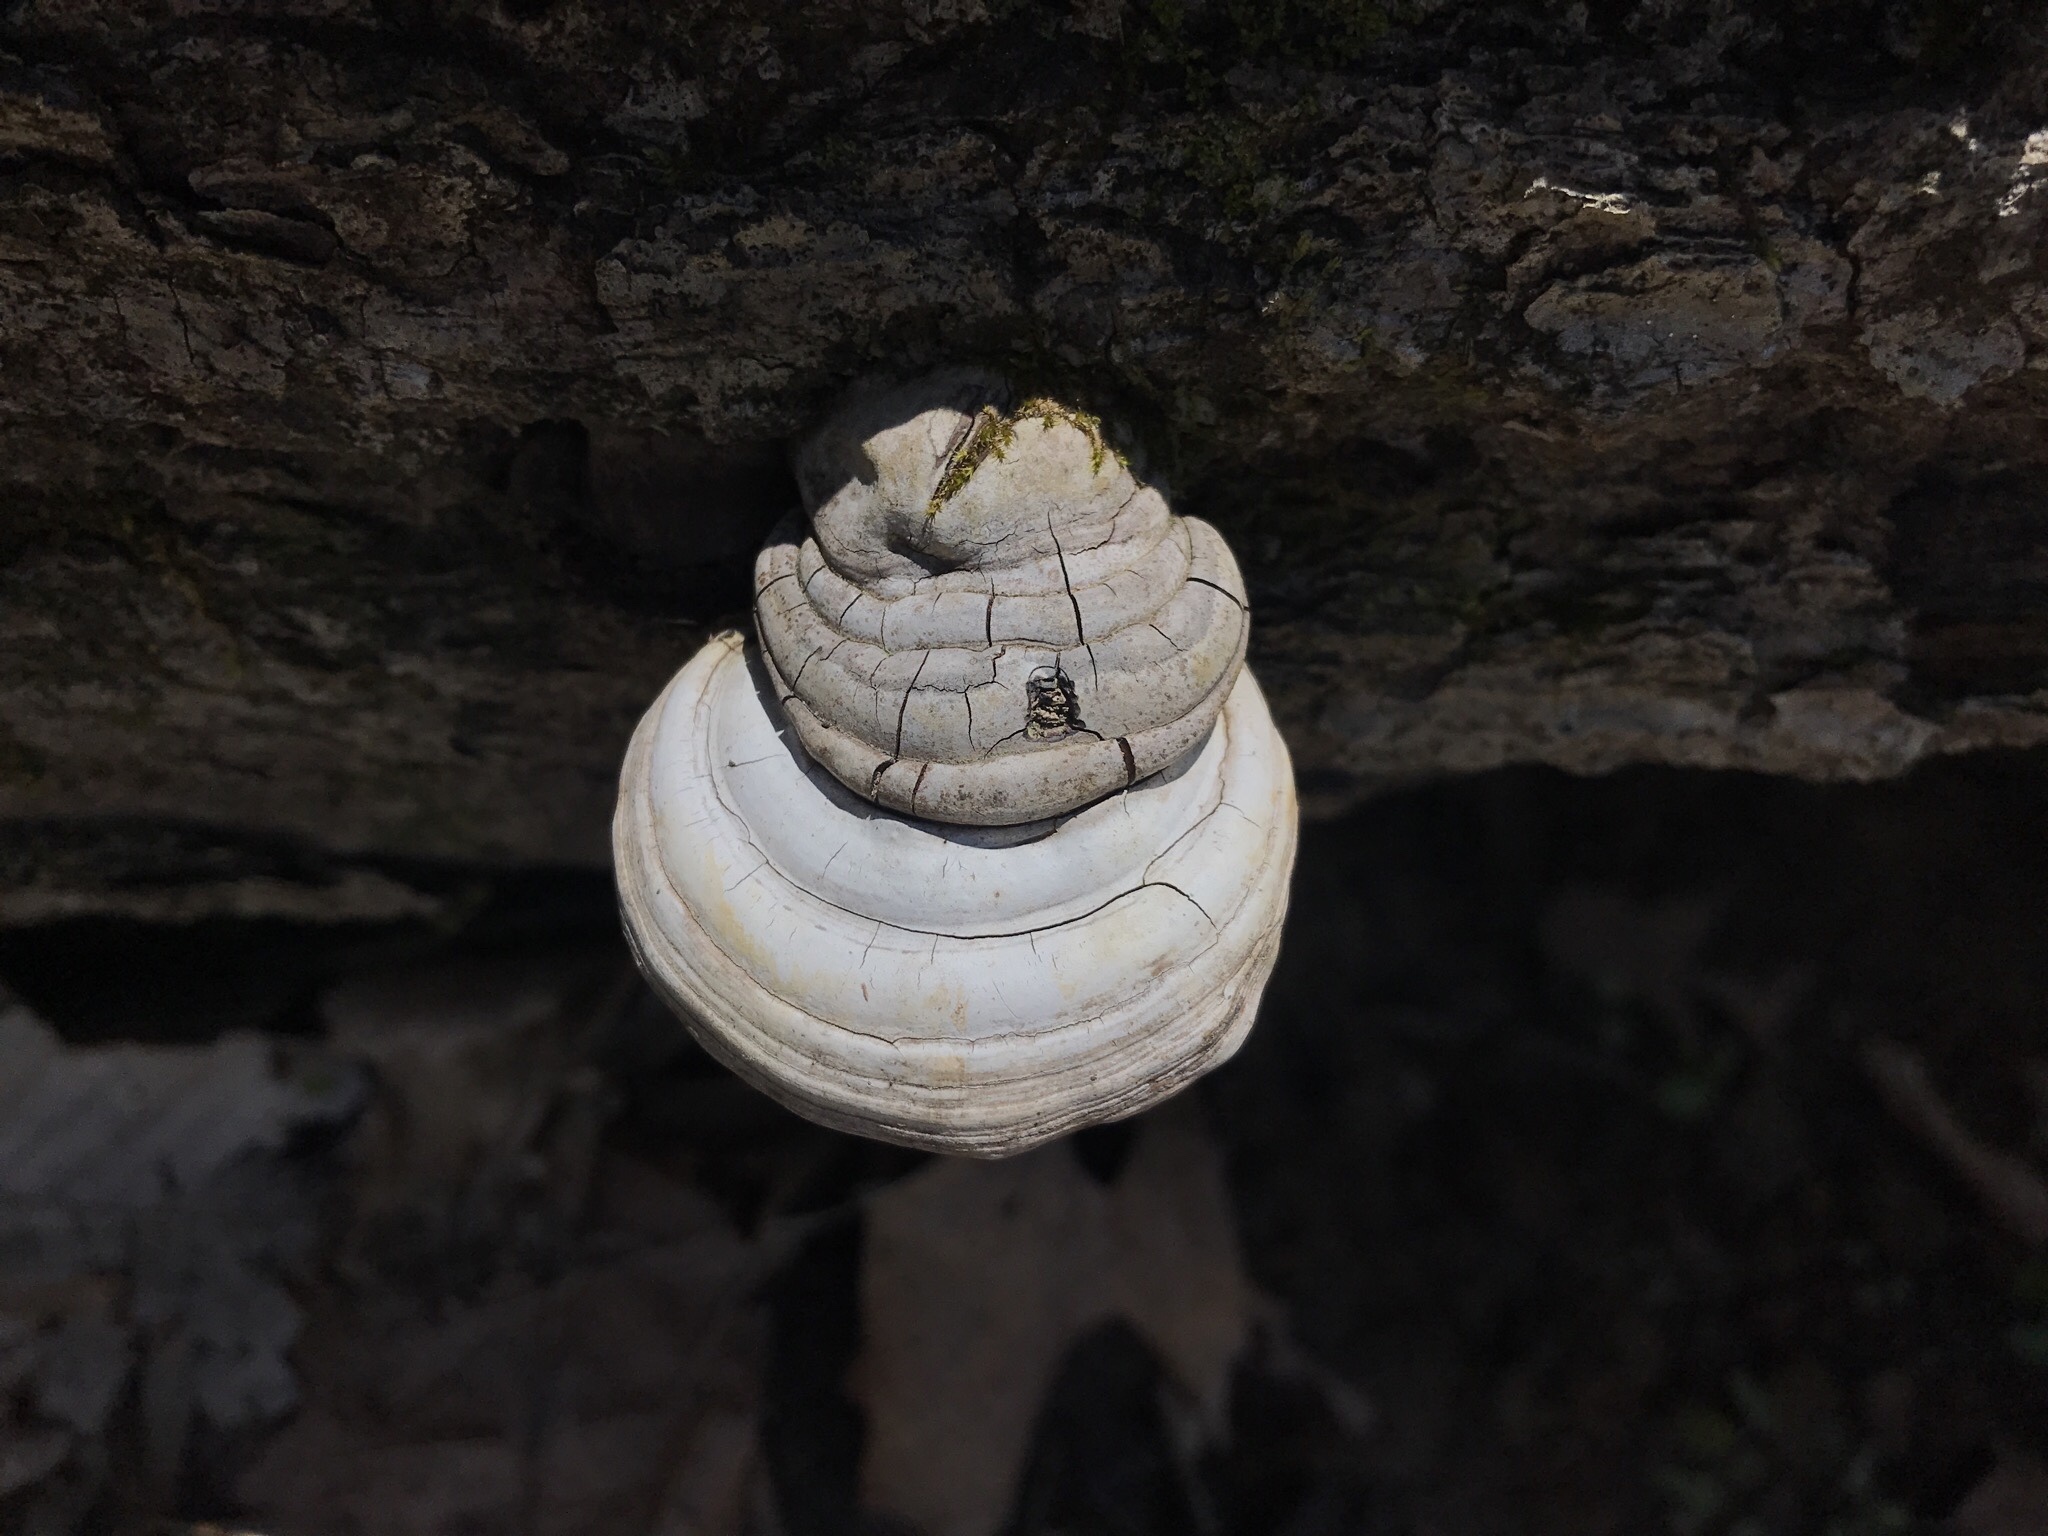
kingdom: Fungi
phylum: Basidiomycota
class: Agaricomycetes
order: Polyporales
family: Polyporaceae
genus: Ganoderma
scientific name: Ganoderma applanatum
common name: Artist's bracket
